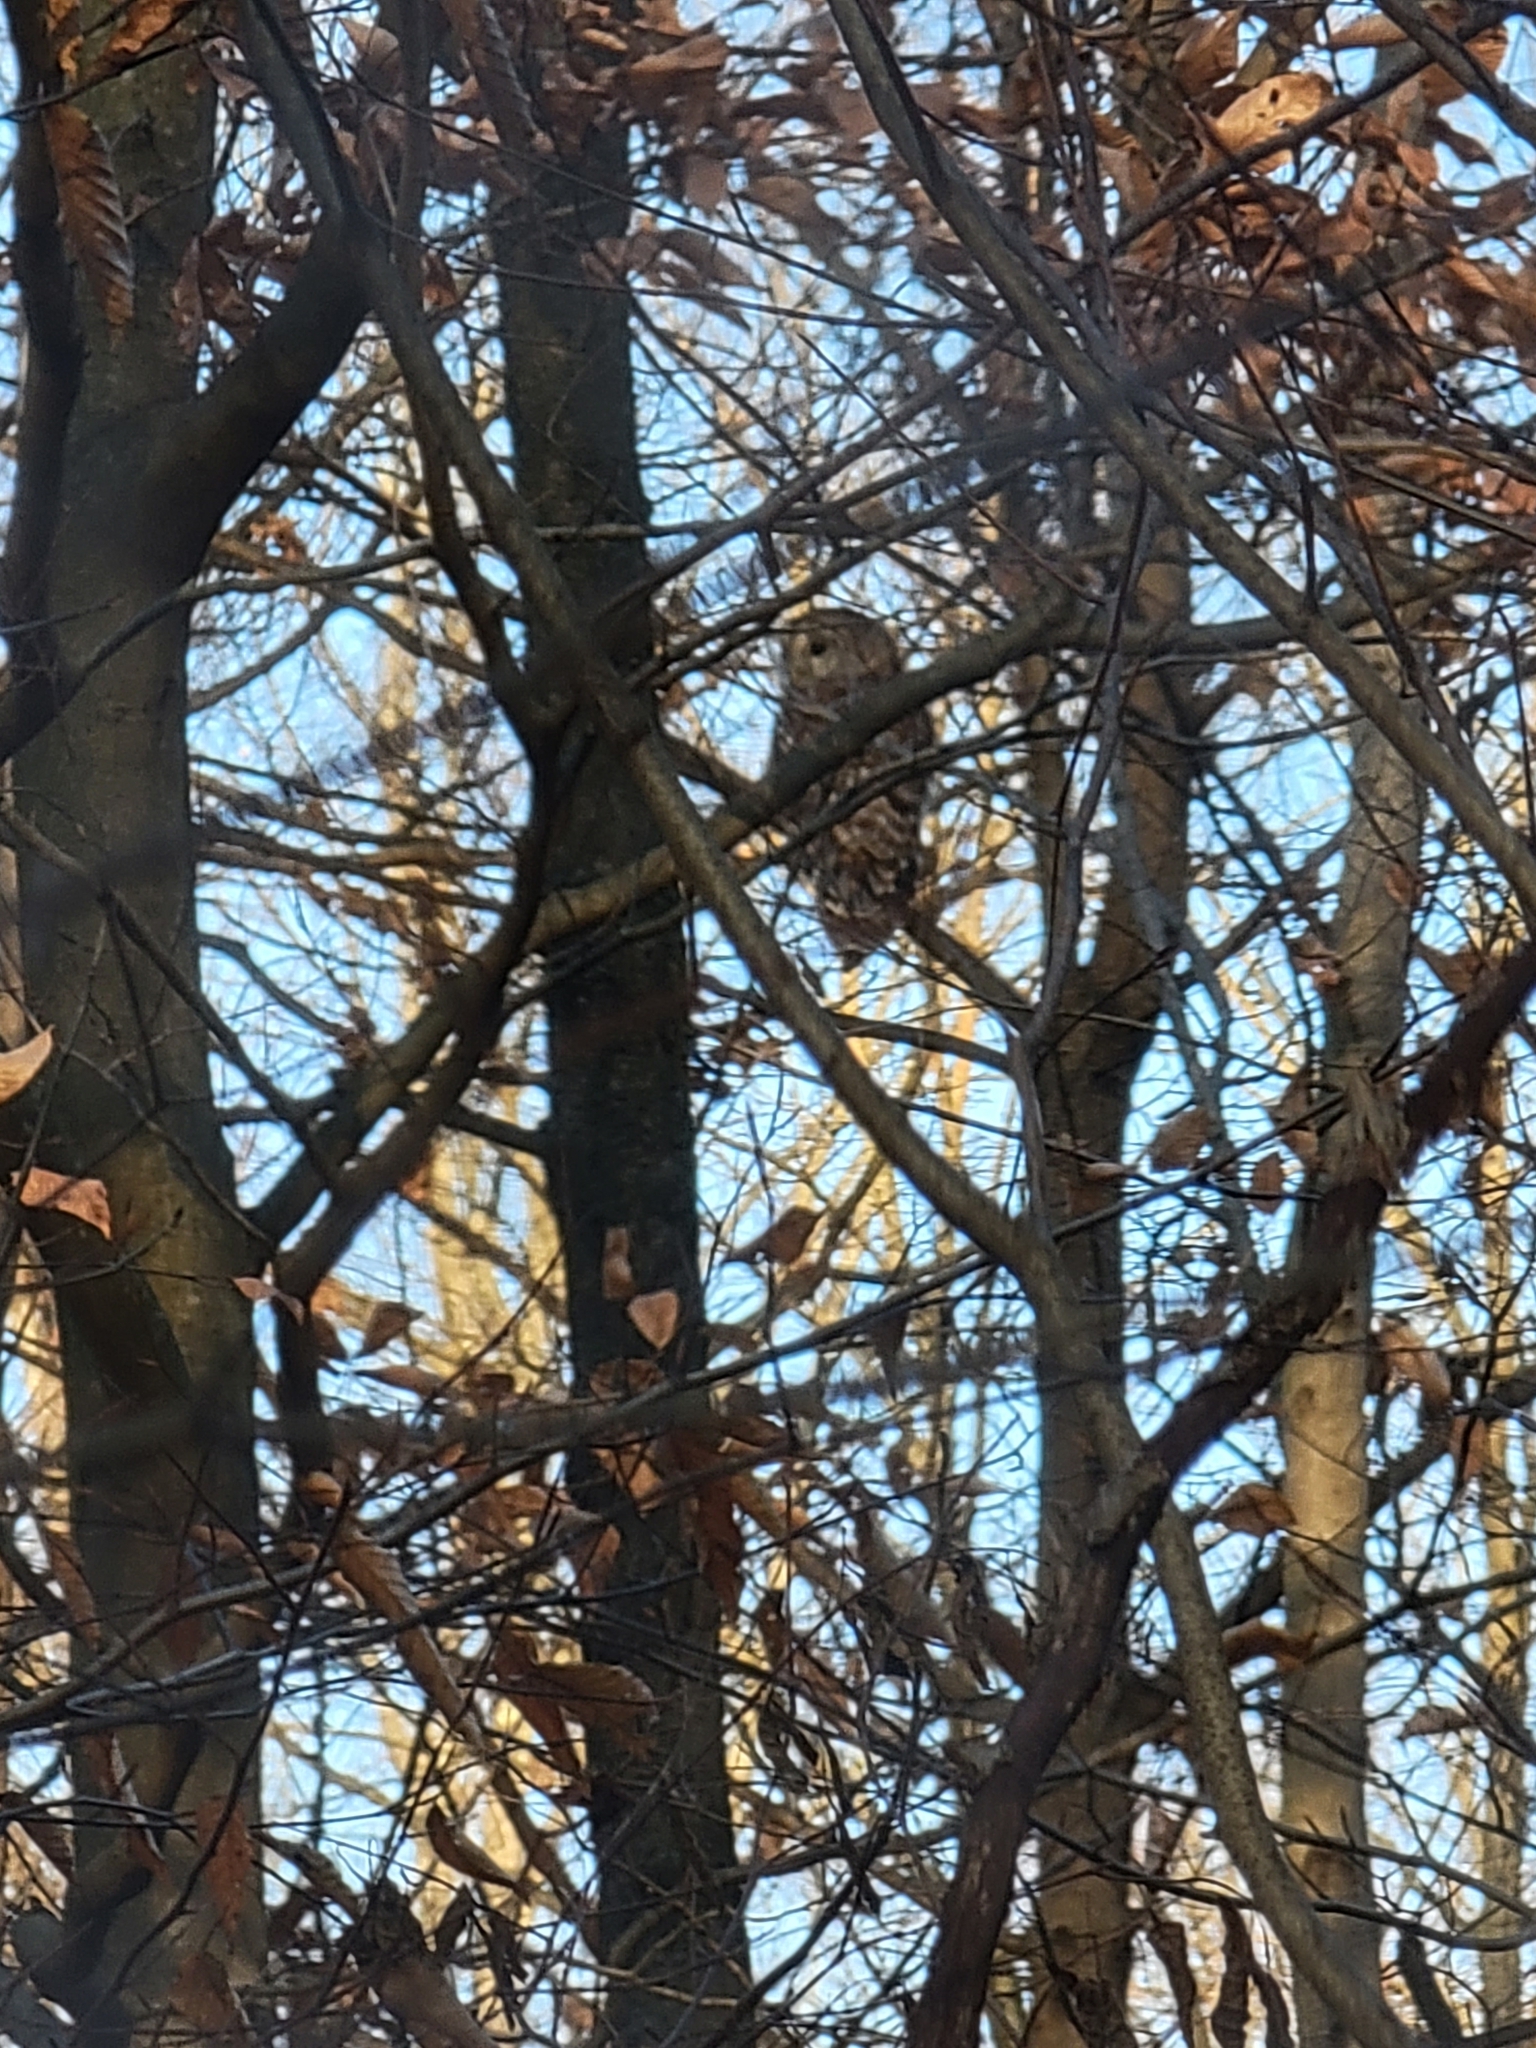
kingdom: Animalia
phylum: Chordata
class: Aves
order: Strigiformes
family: Strigidae
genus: Strix
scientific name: Strix varia
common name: Barred owl
